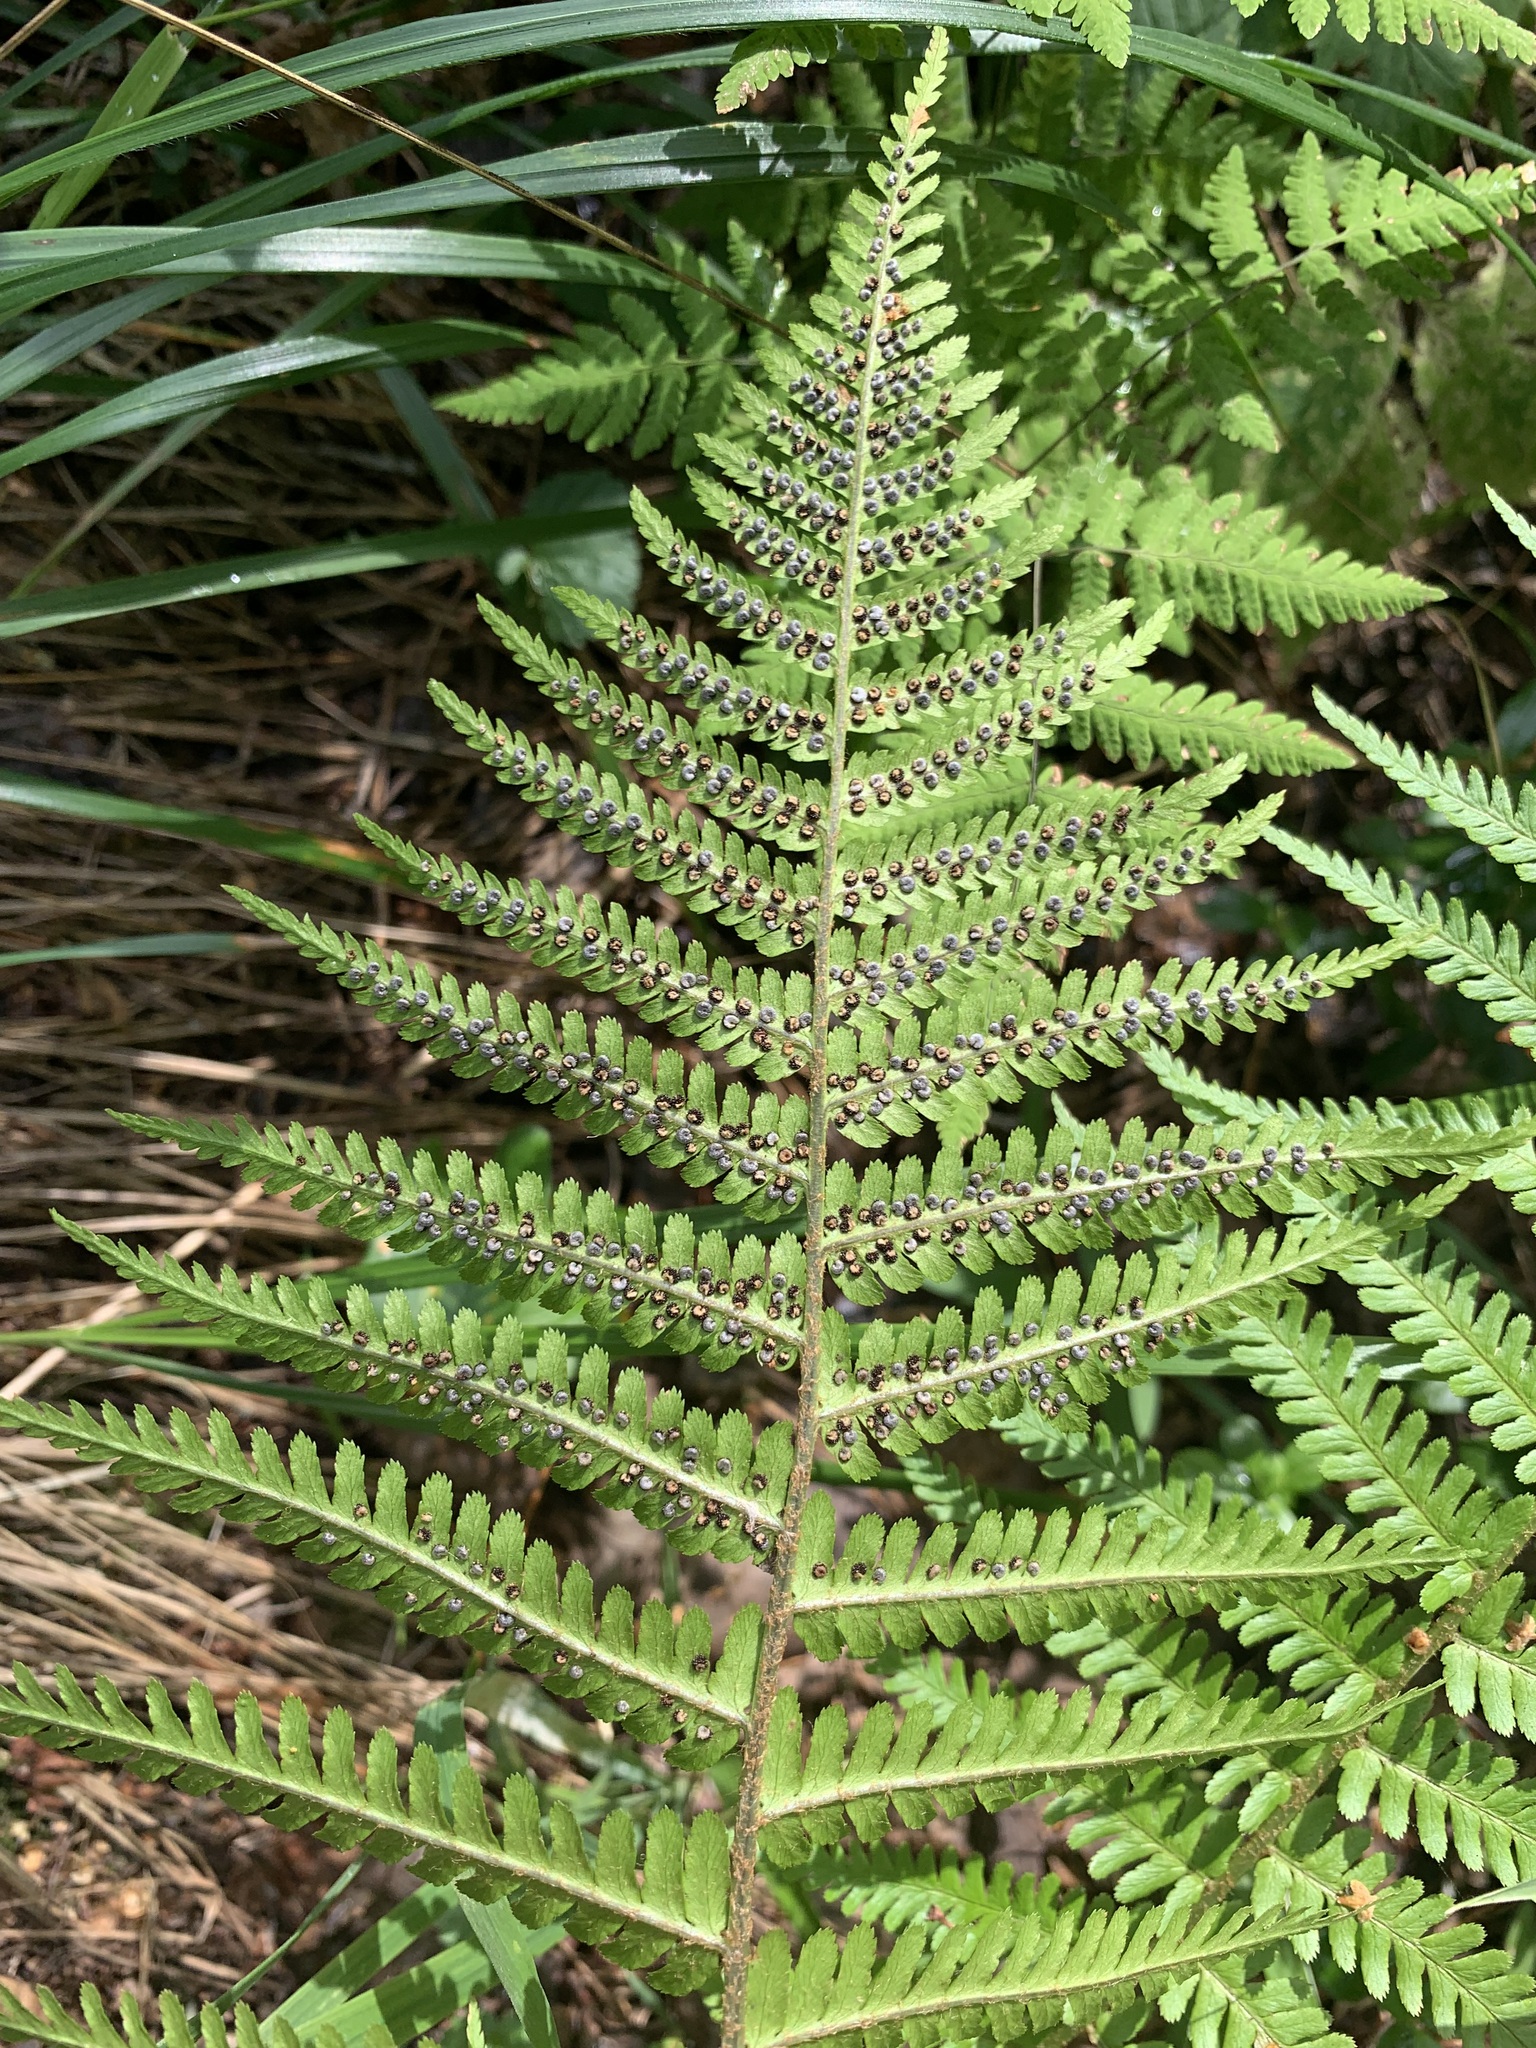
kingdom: Plantae
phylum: Tracheophyta
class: Polypodiopsida
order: Polypodiales
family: Dryopteridaceae
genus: Dryopteris
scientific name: Dryopteris filix-mas
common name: Male fern
